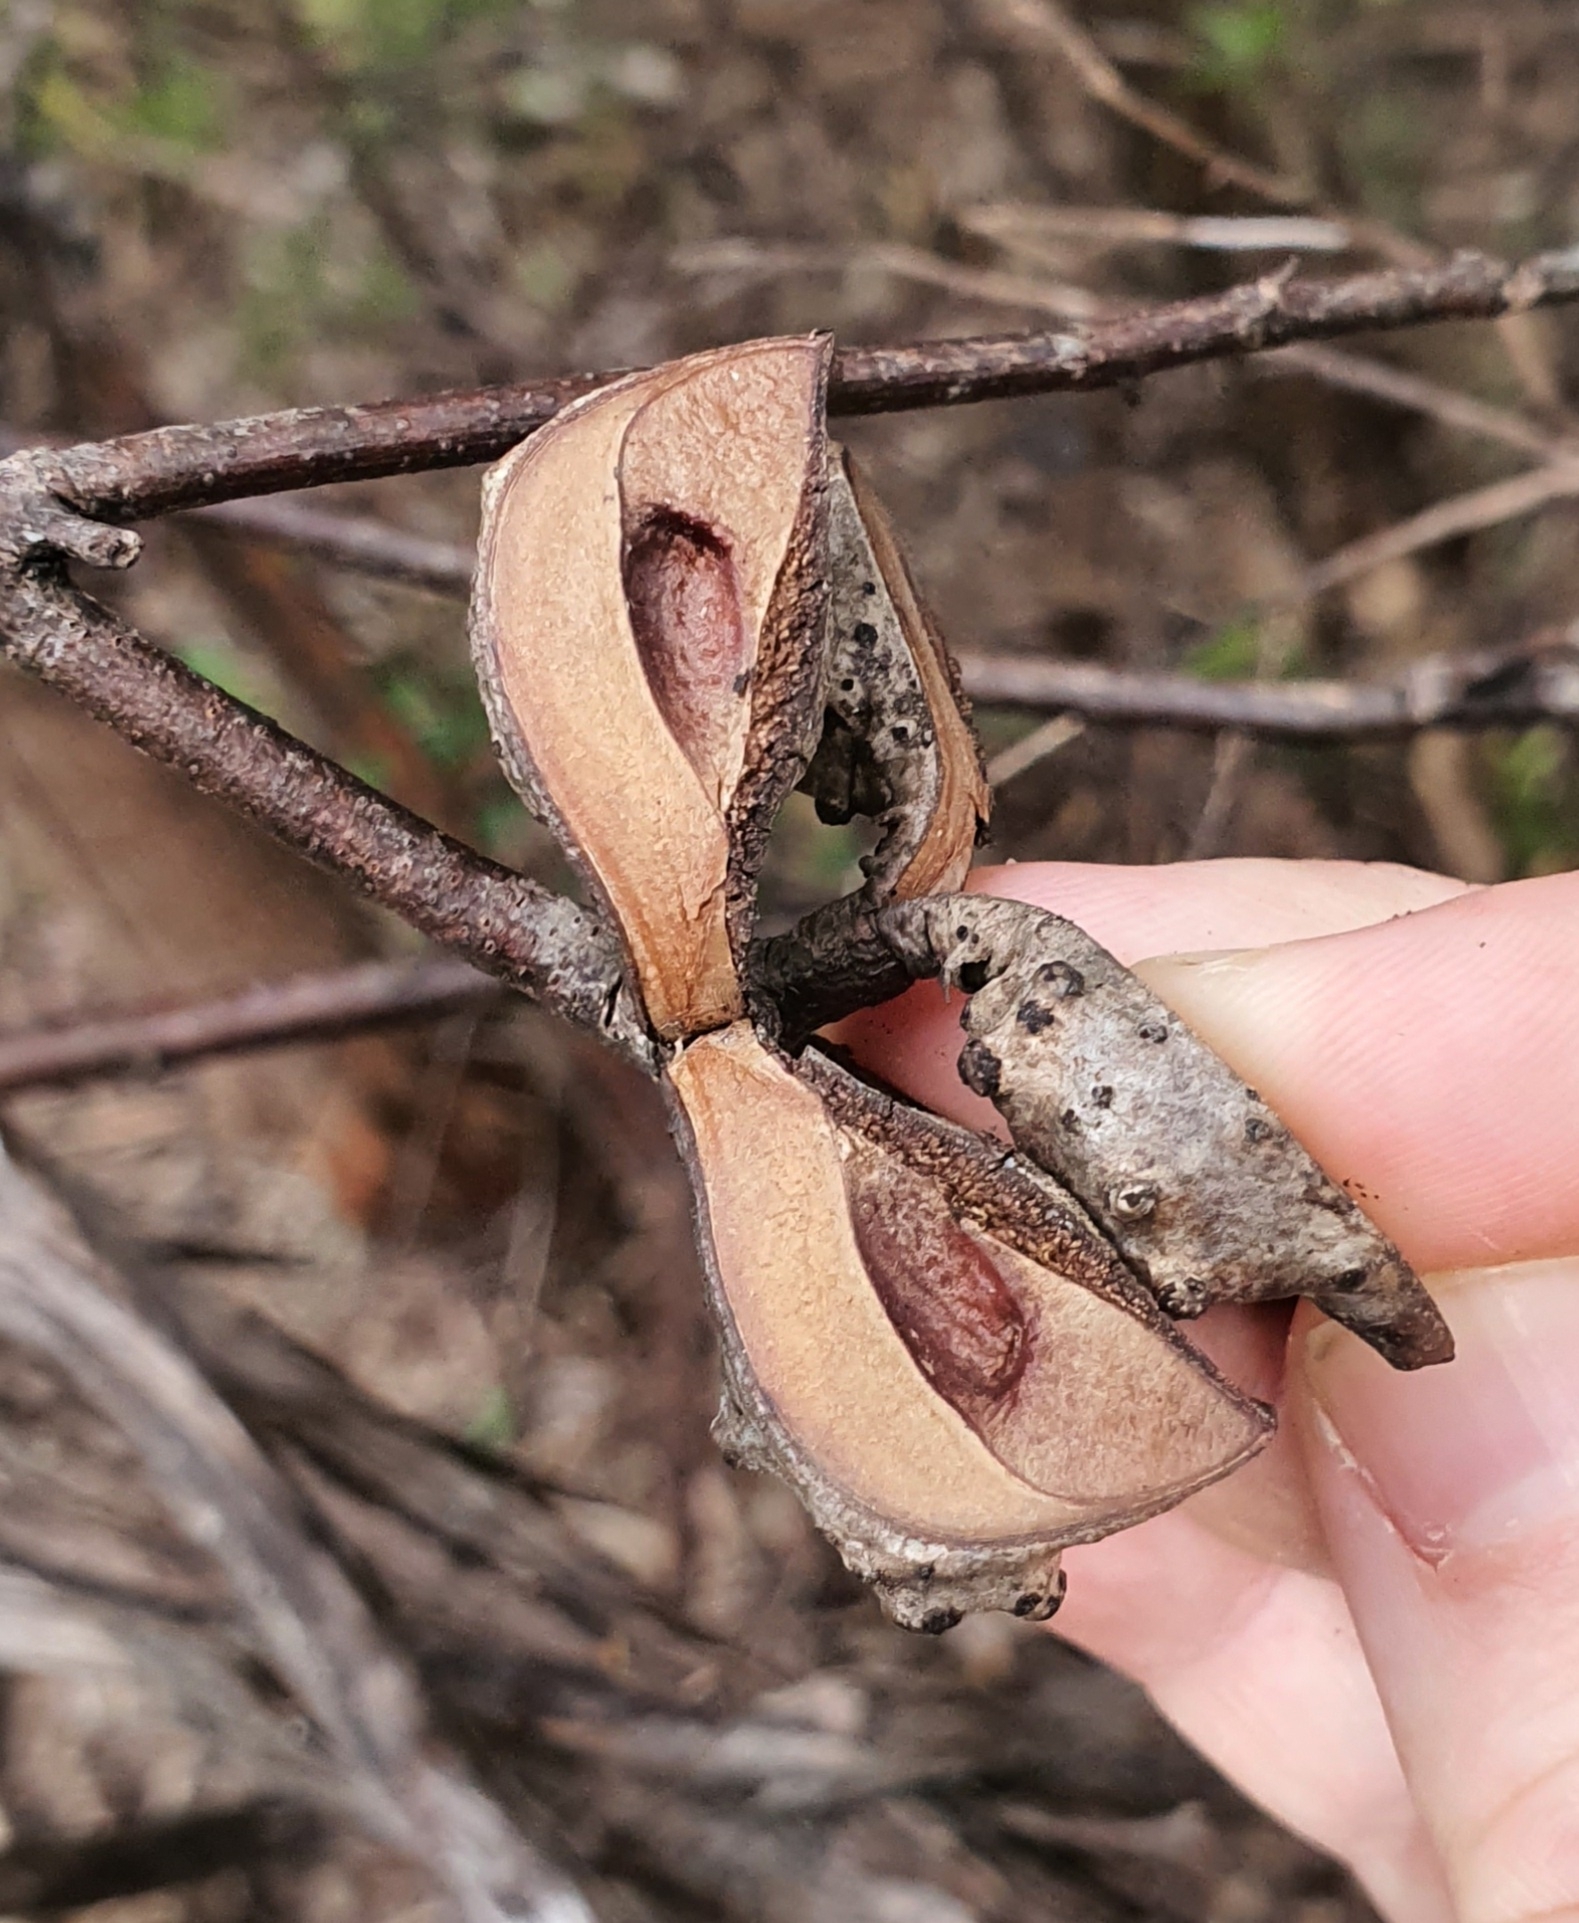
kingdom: Plantae
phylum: Tracheophyta
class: Magnoliopsida
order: Proteales
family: Proteaceae
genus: Hakea
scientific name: Hakea salicifolia
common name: Willow hakea
